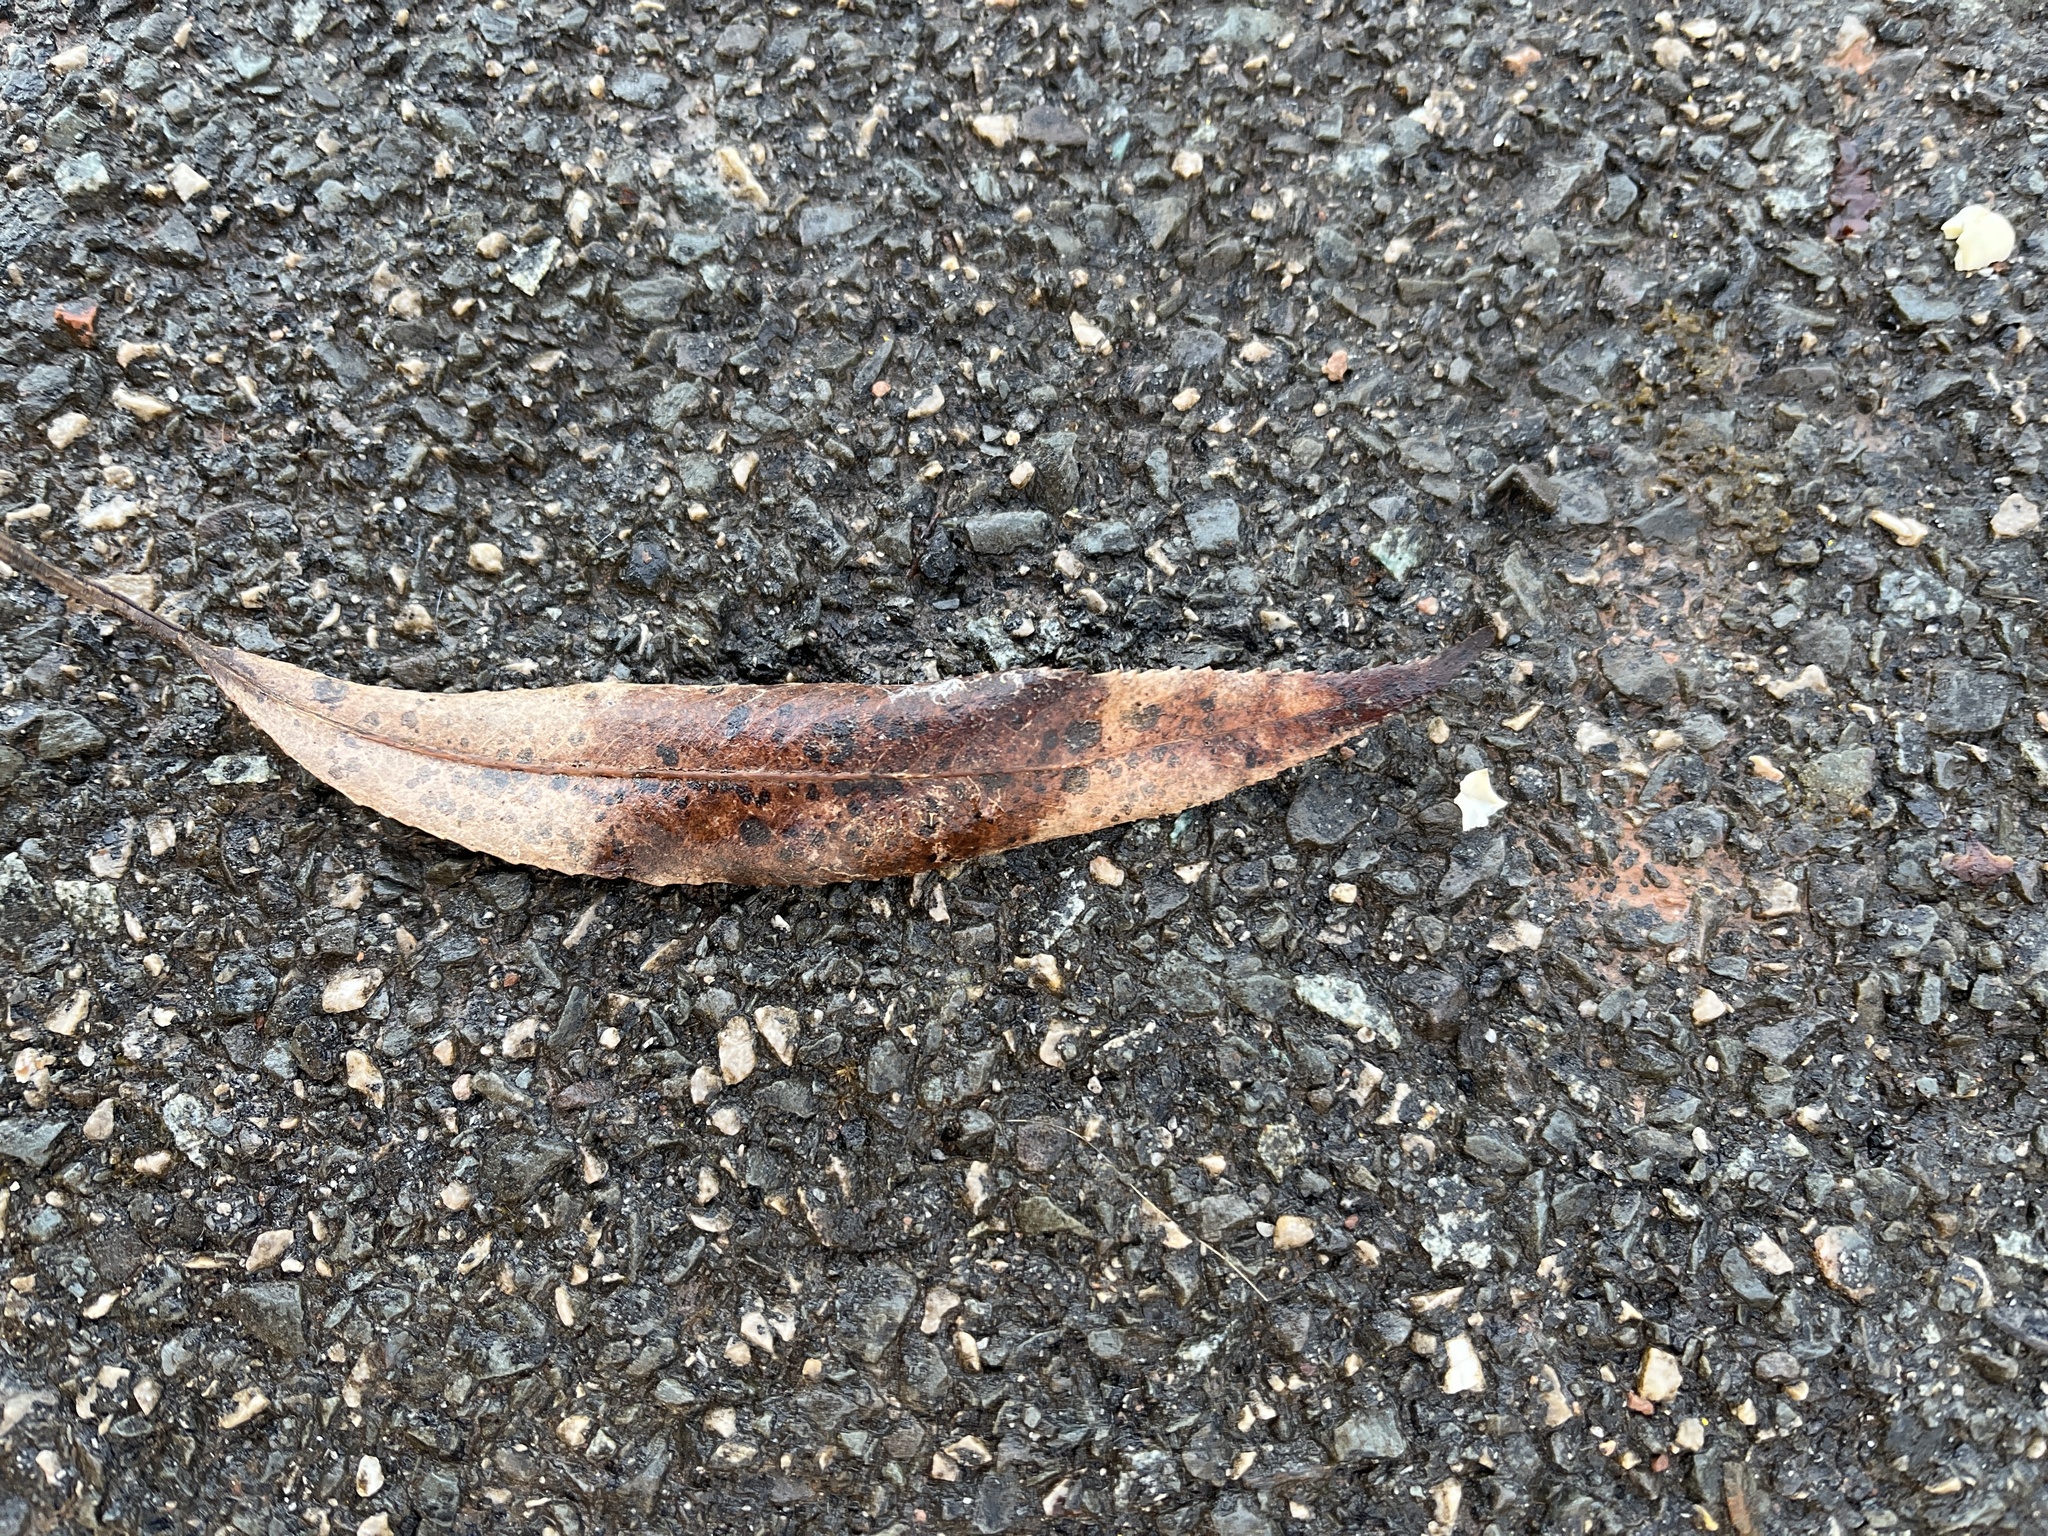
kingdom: Plantae
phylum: Tracheophyta
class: Magnoliopsida
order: Malpighiales
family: Salicaceae
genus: Salix
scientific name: Salix alba
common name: White willow
